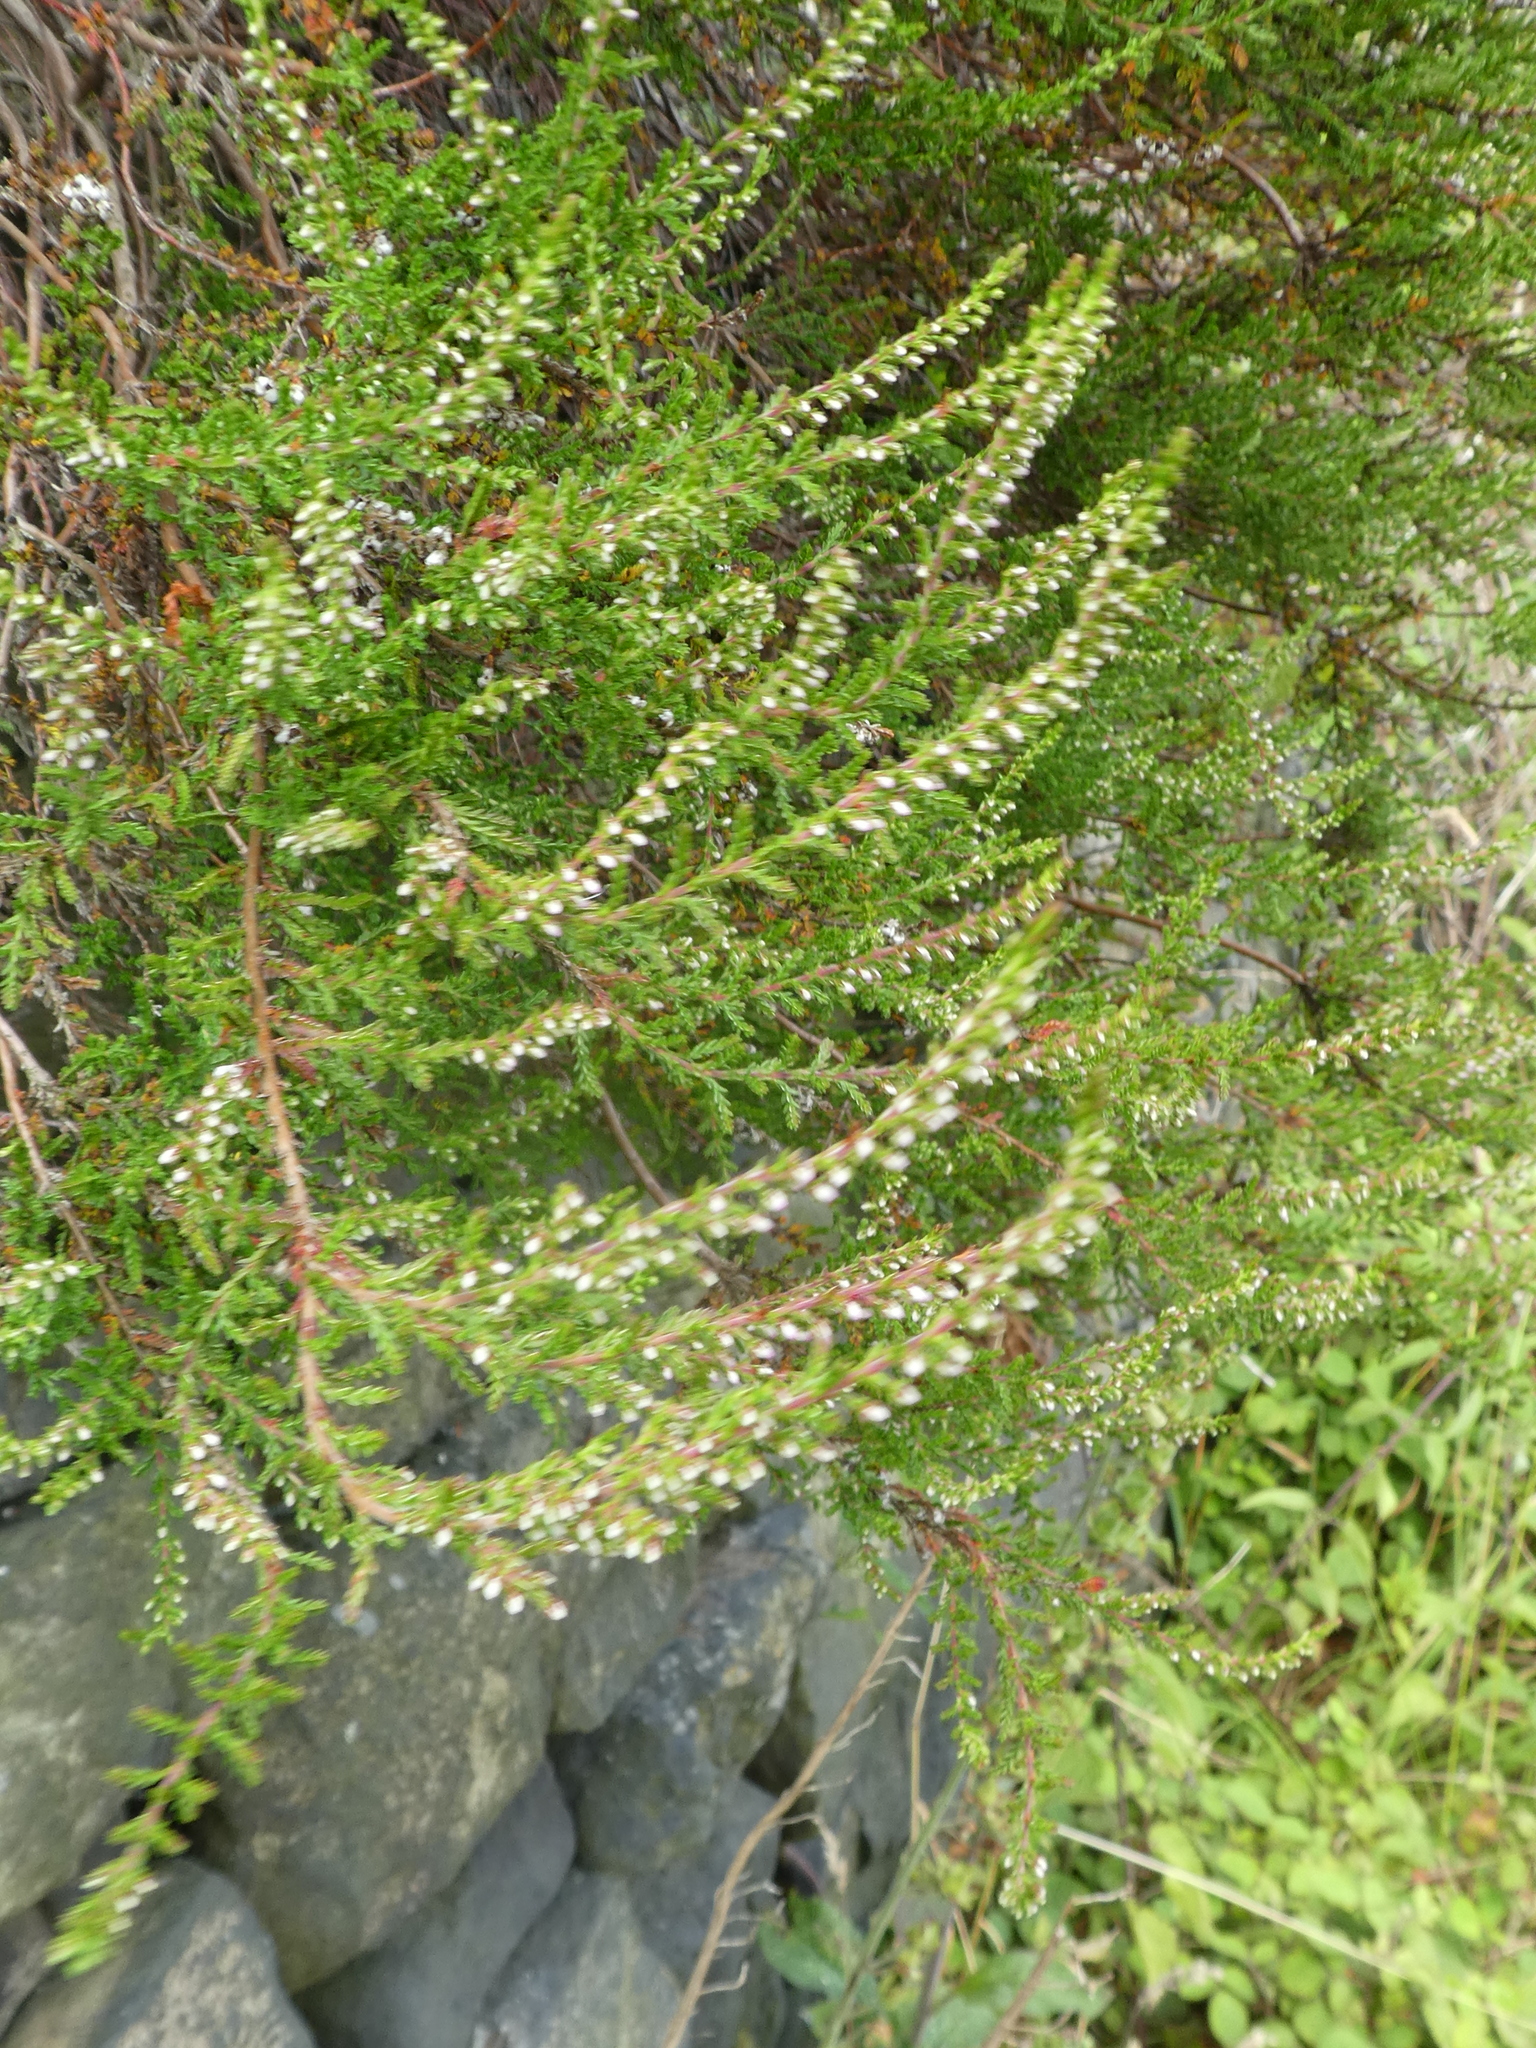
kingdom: Plantae
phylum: Tracheophyta
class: Magnoliopsida
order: Ericales
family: Ericaceae
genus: Calluna
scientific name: Calluna vulgaris
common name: Heather
